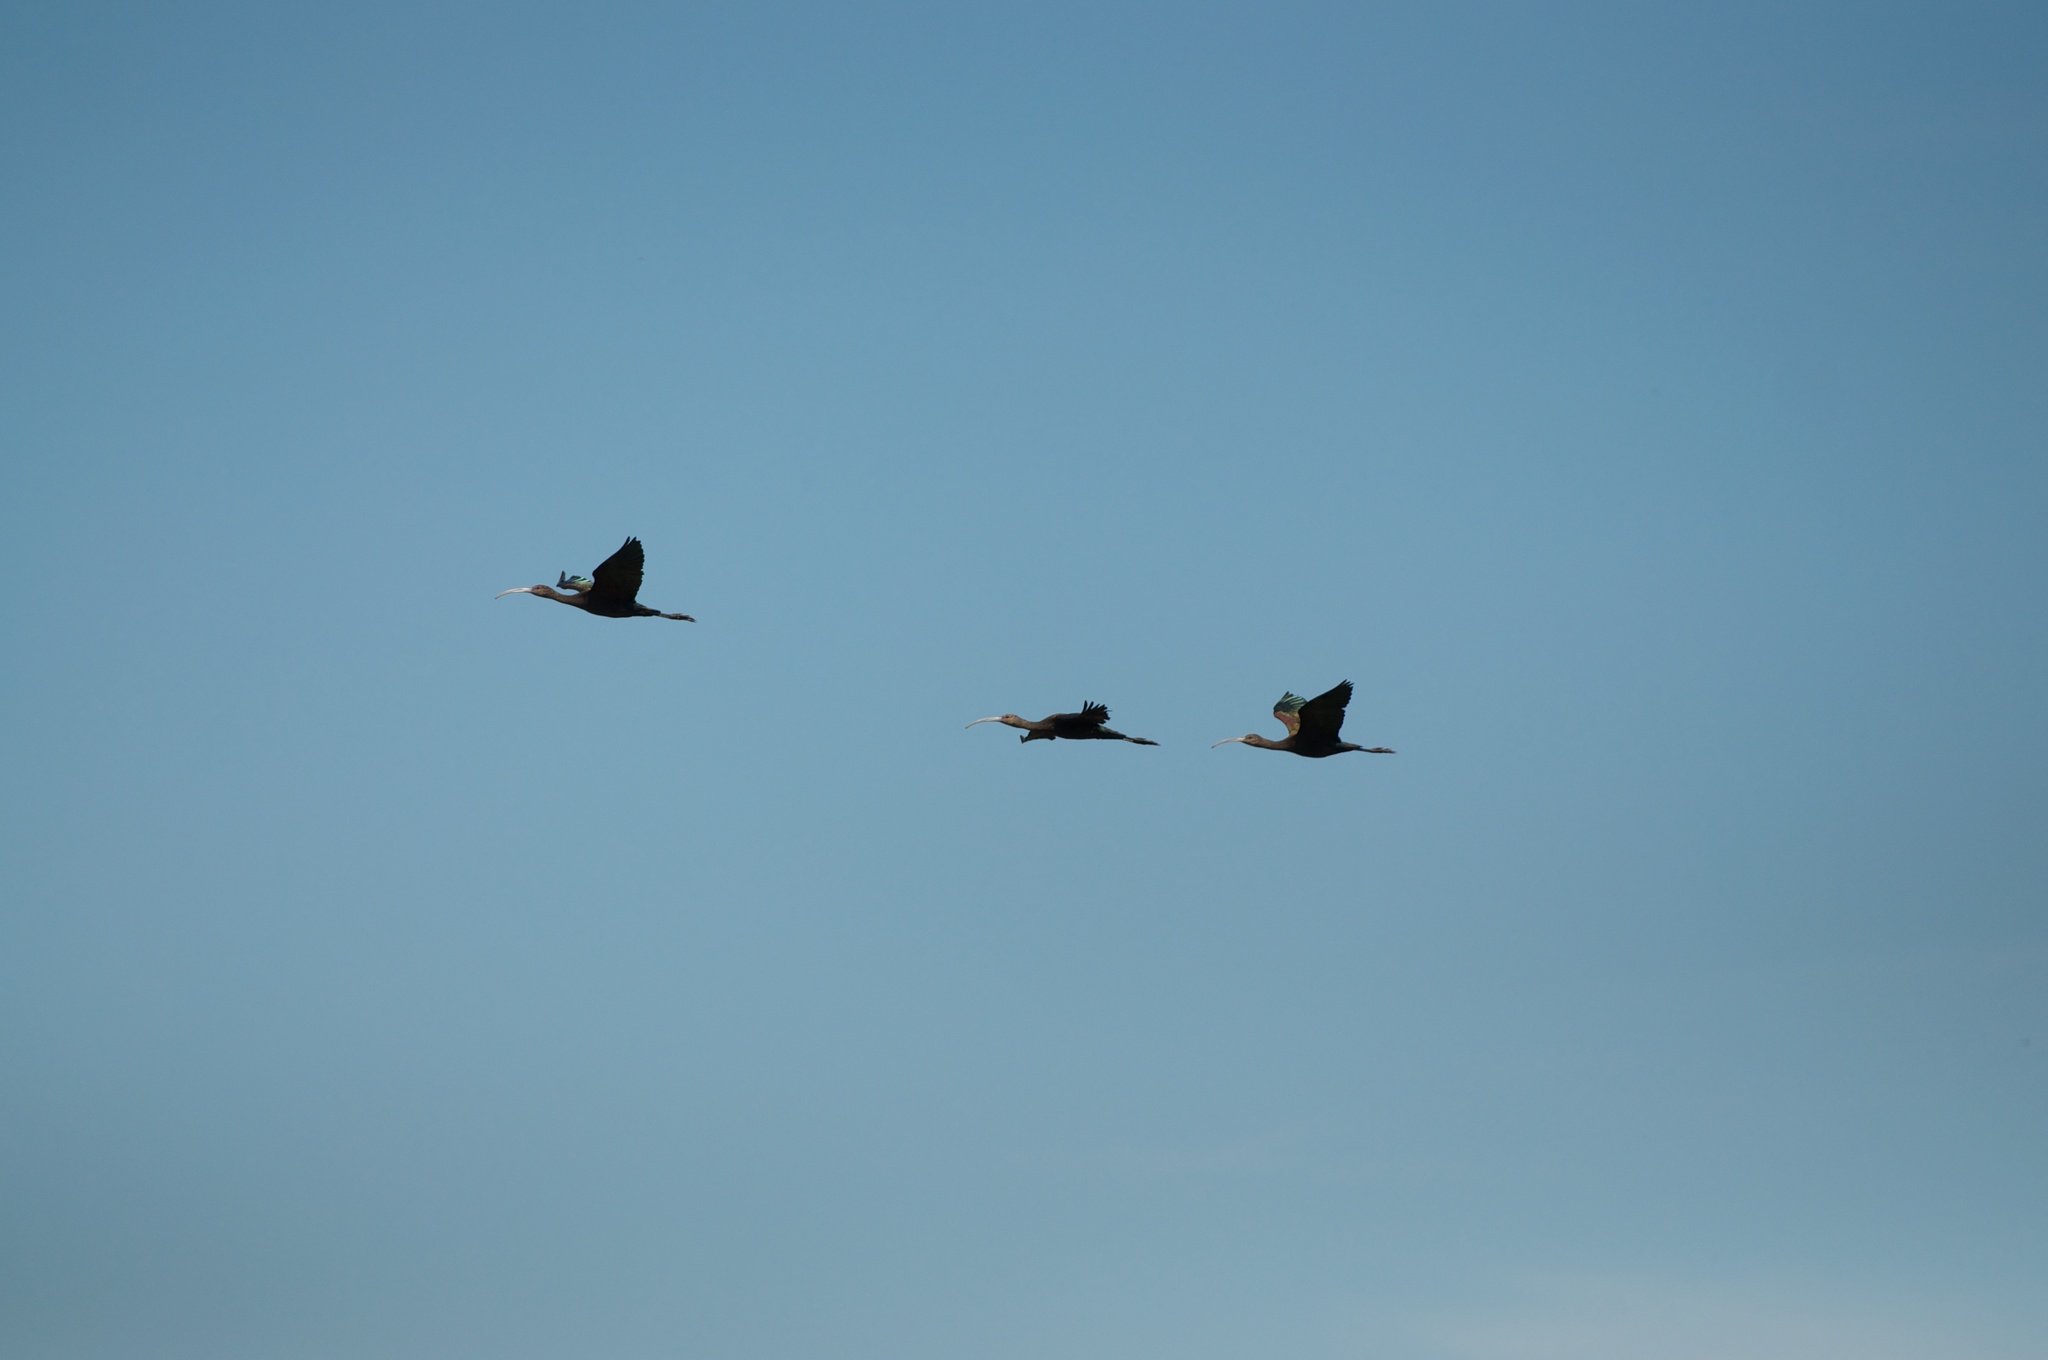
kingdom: Animalia
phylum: Chordata
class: Aves
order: Pelecaniformes
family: Threskiornithidae
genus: Plegadis
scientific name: Plegadis chihi
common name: White-faced ibis
